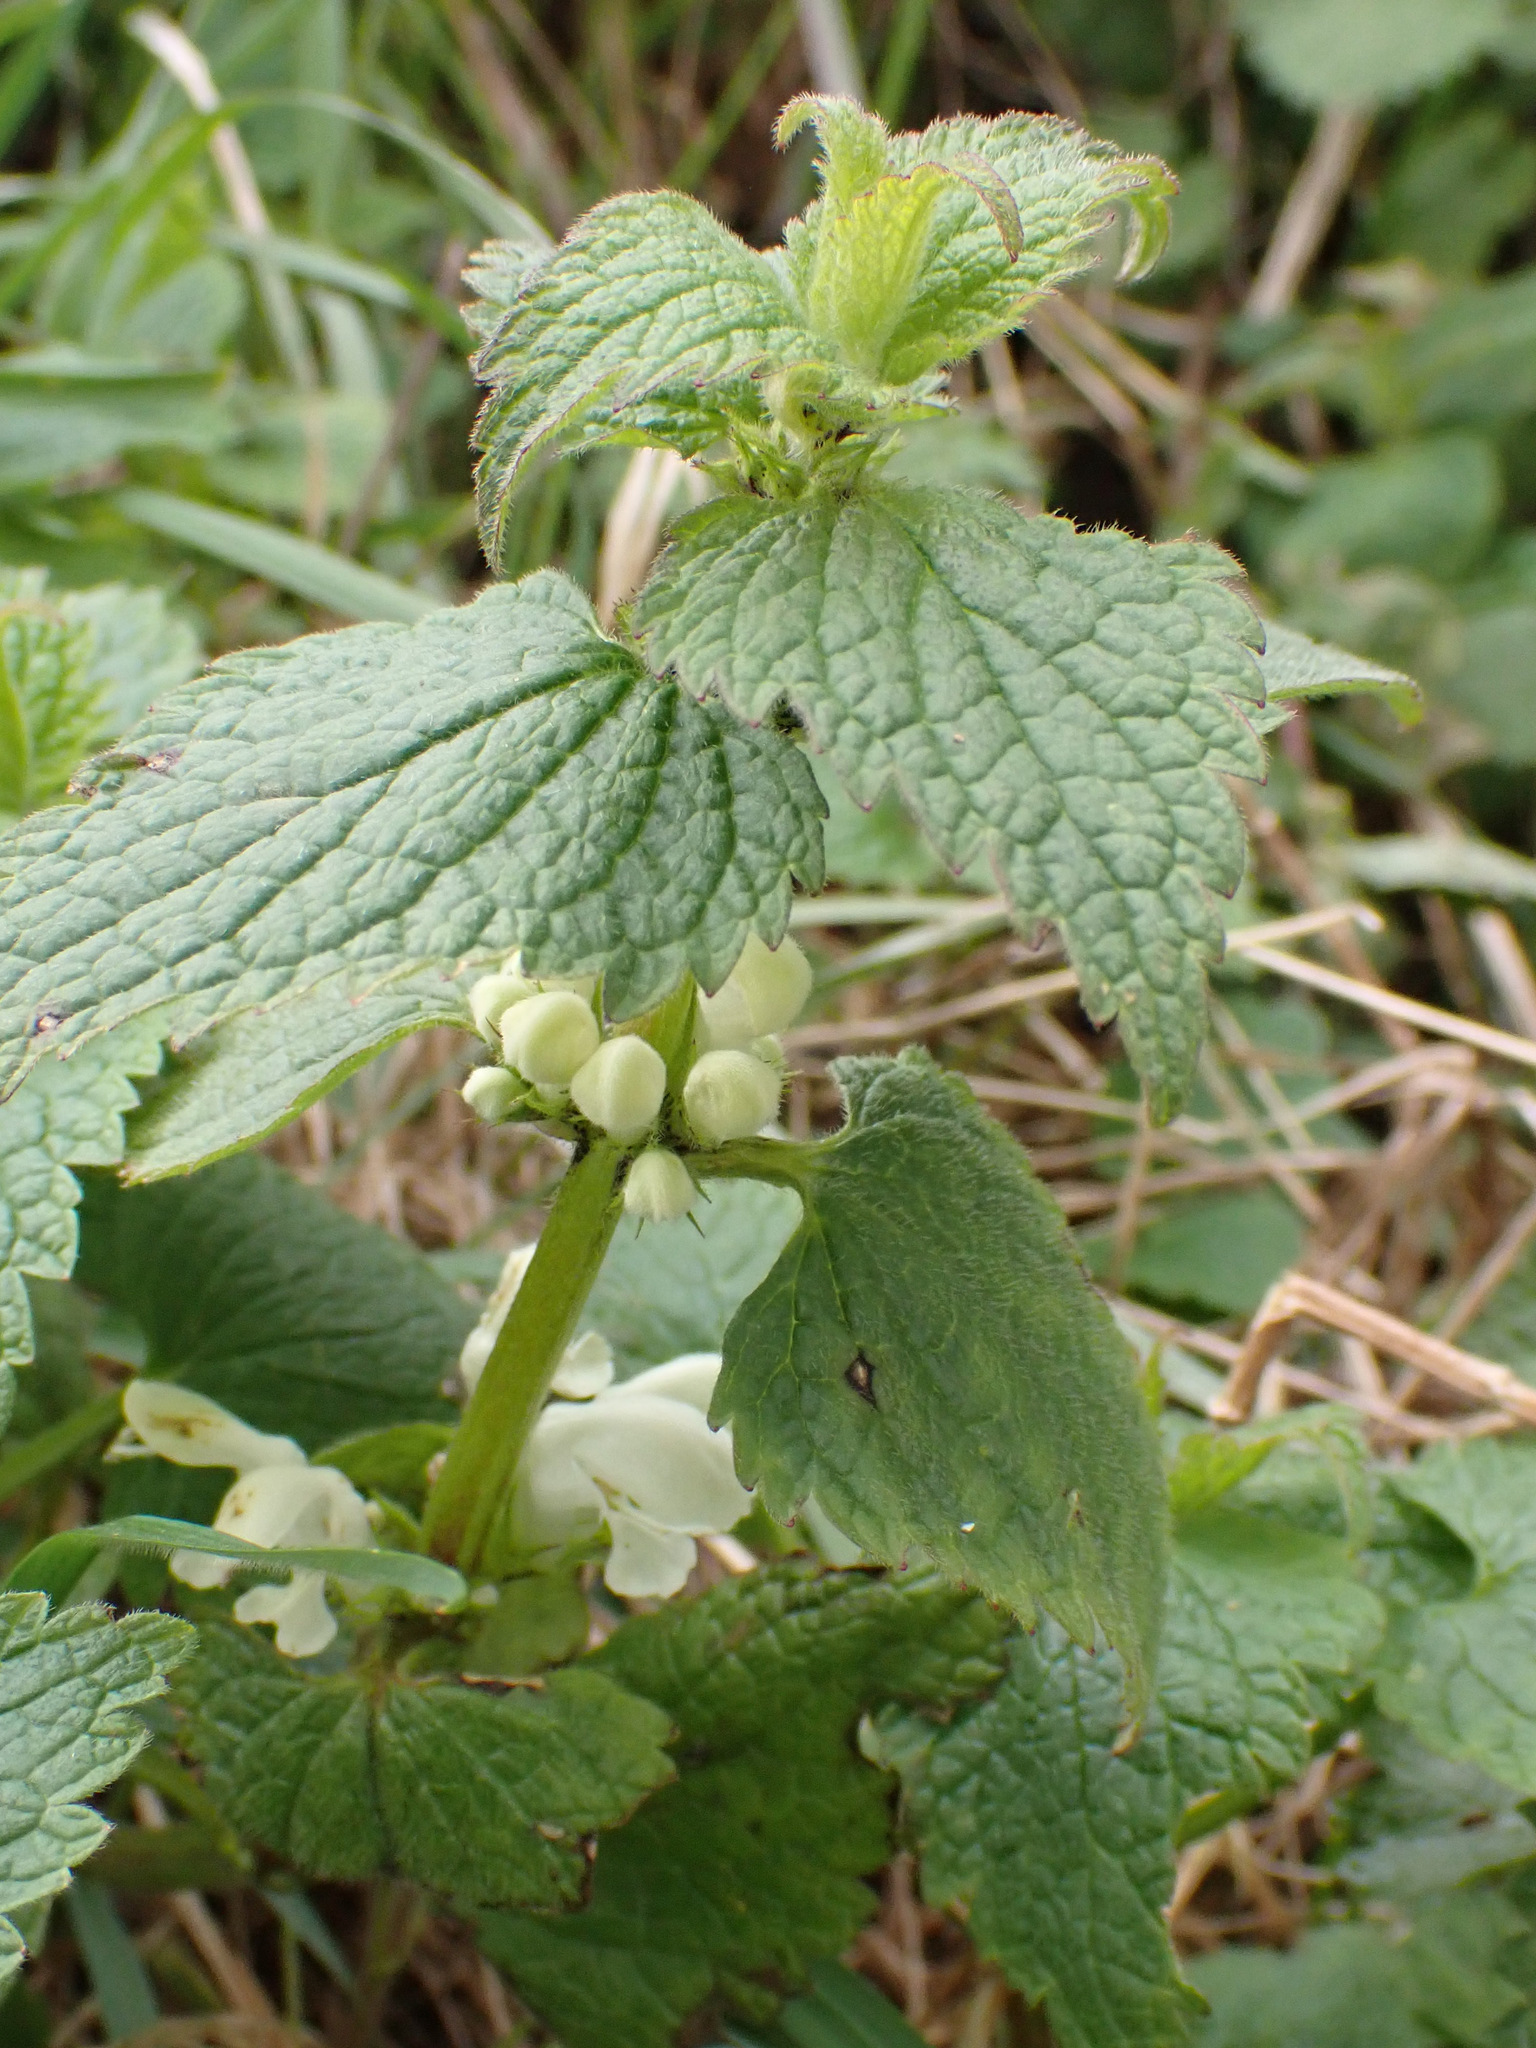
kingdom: Plantae
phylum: Tracheophyta
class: Magnoliopsida
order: Lamiales
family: Lamiaceae
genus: Lamium
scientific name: Lamium album
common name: White dead-nettle
